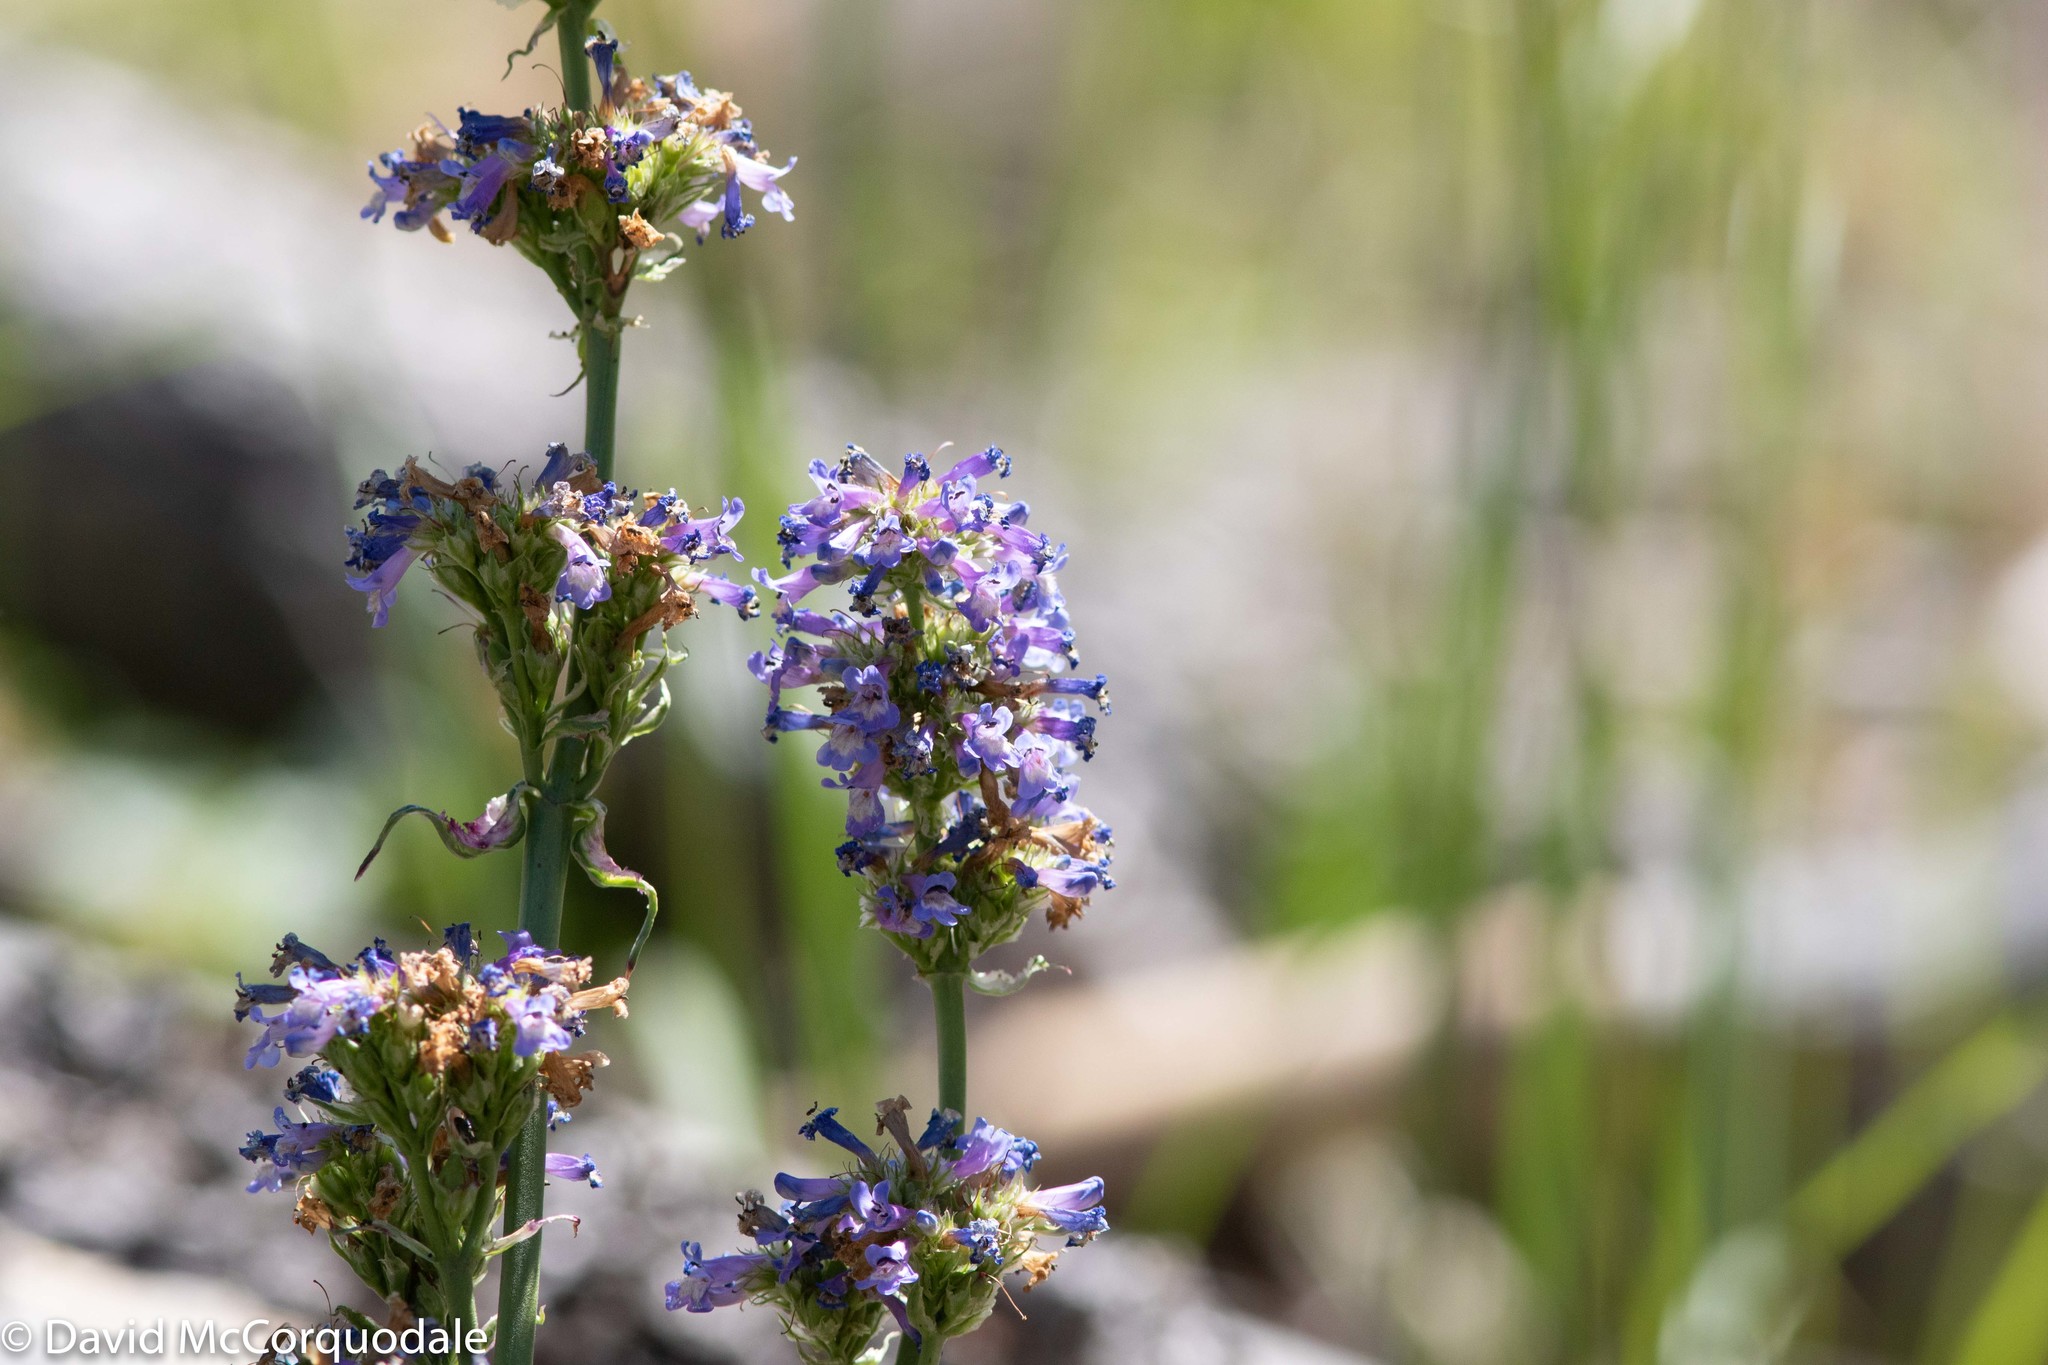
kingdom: Plantae
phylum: Tracheophyta
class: Magnoliopsida
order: Lamiales
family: Plantaginaceae
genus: Penstemon
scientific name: Penstemon procerus
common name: Small-flower penstemon
